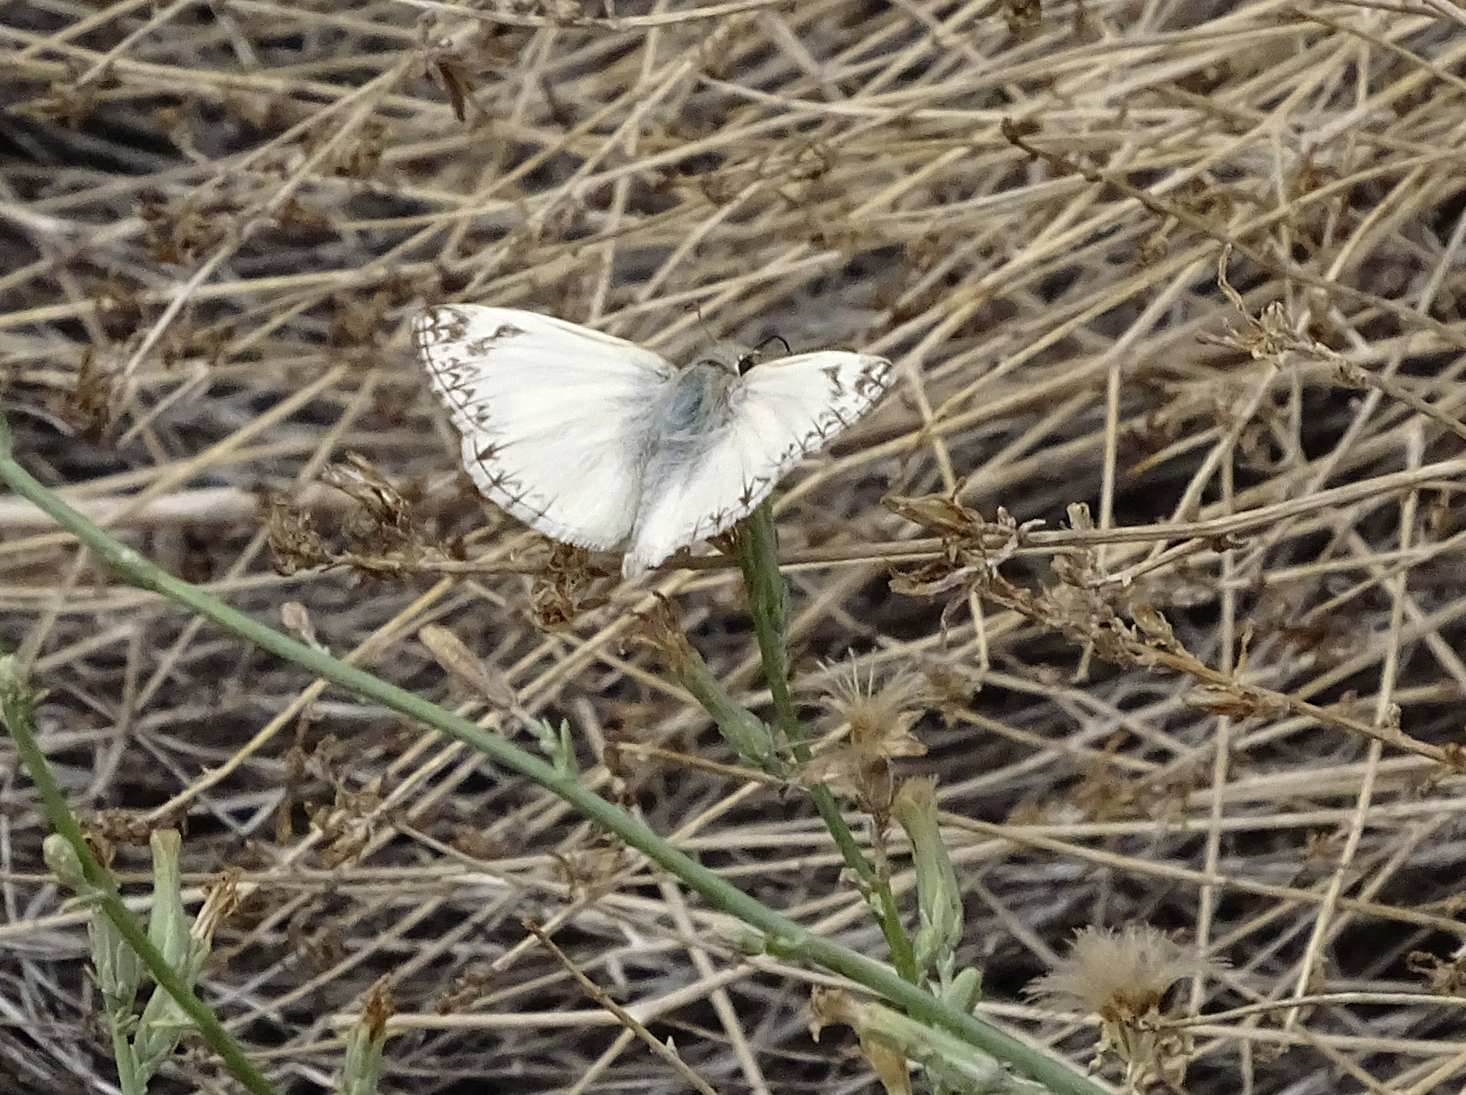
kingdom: Animalia
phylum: Arthropoda
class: Insecta
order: Lepidoptera
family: Hesperiidae
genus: Heliopetes
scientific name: Heliopetes ericetorum
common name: Northern white-skipper
